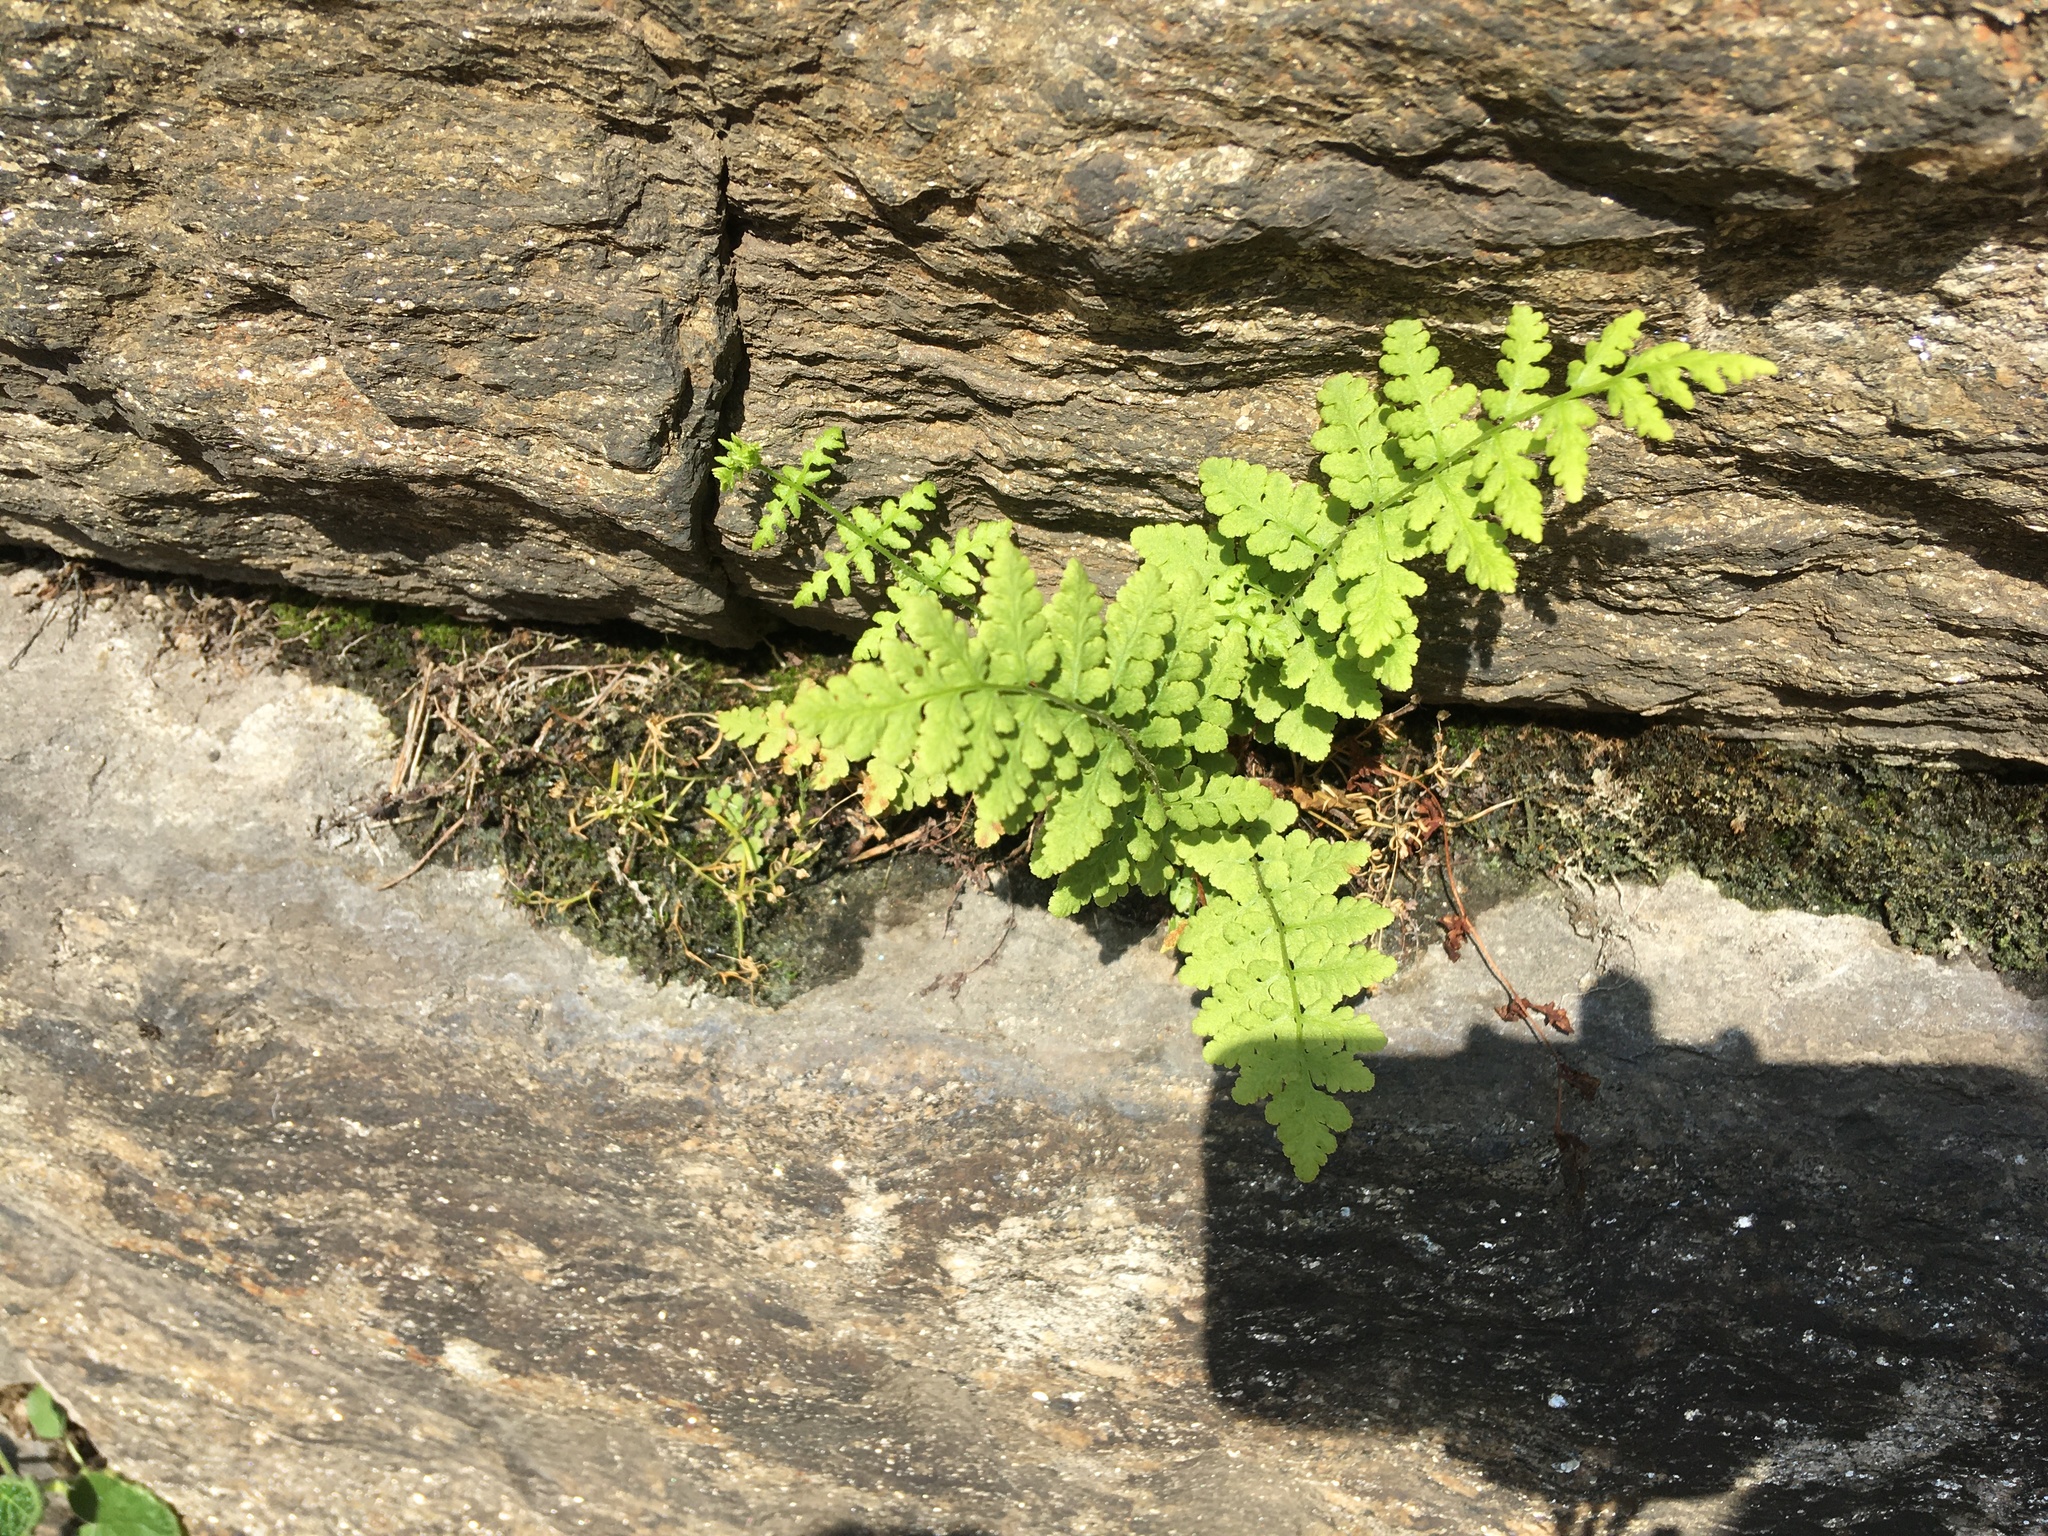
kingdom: Plantae
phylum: Tracheophyta
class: Polypodiopsida
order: Polypodiales
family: Woodsiaceae
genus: Physematium
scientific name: Physematium obtusum
